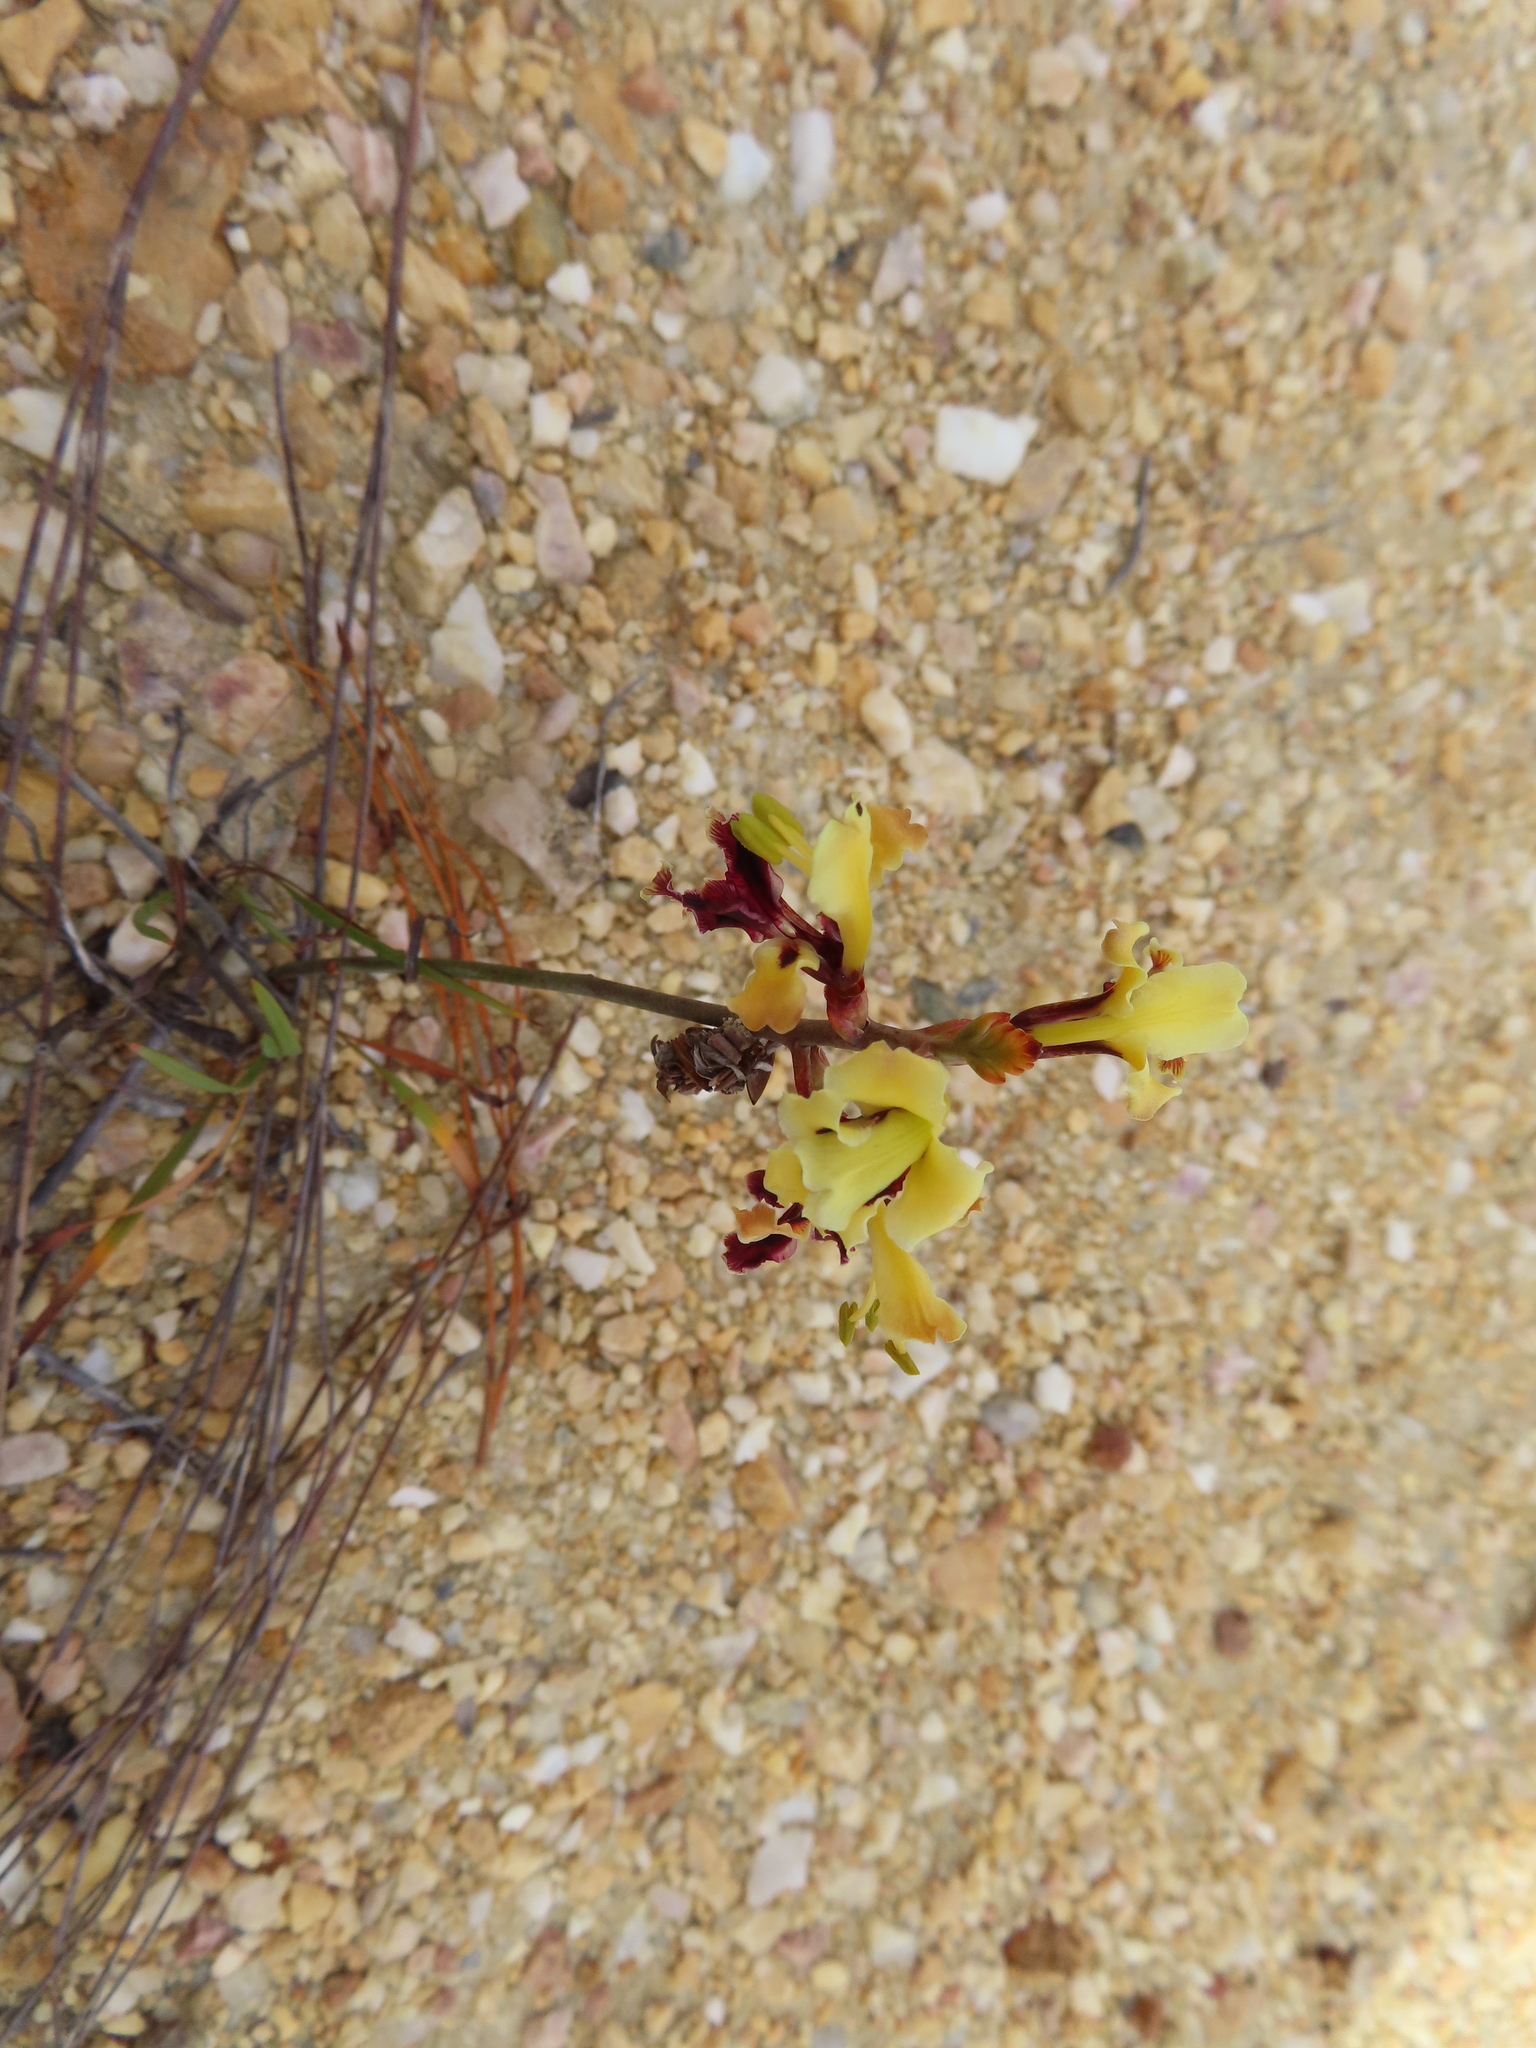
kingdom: Plantae
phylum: Tracheophyta
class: Liliopsida
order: Asparagales
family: Iridaceae
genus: Tritoniopsis
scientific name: Tritoniopsis parviflora
